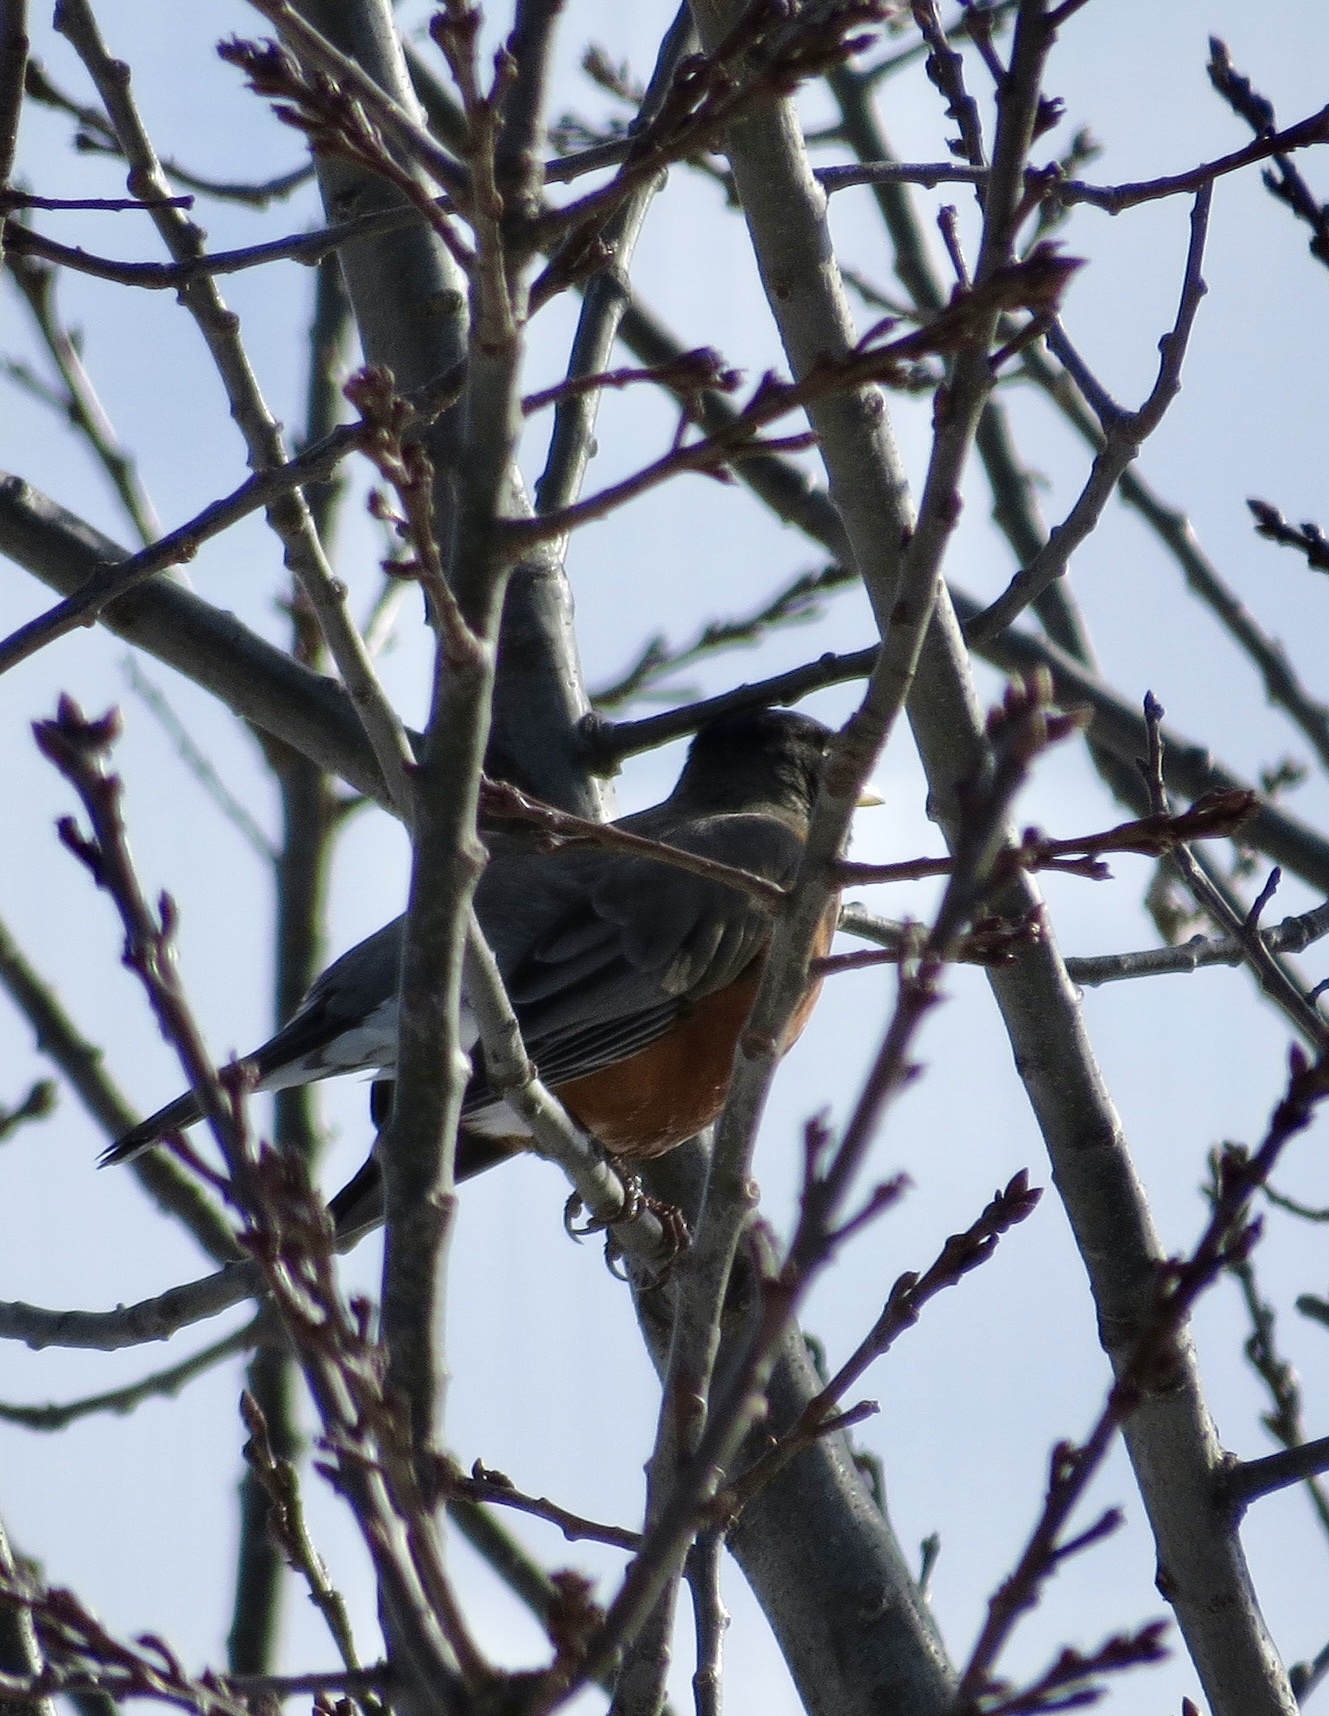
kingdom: Animalia
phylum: Chordata
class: Aves
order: Passeriformes
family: Turdidae
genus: Turdus
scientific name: Turdus migratorius
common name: American robin
